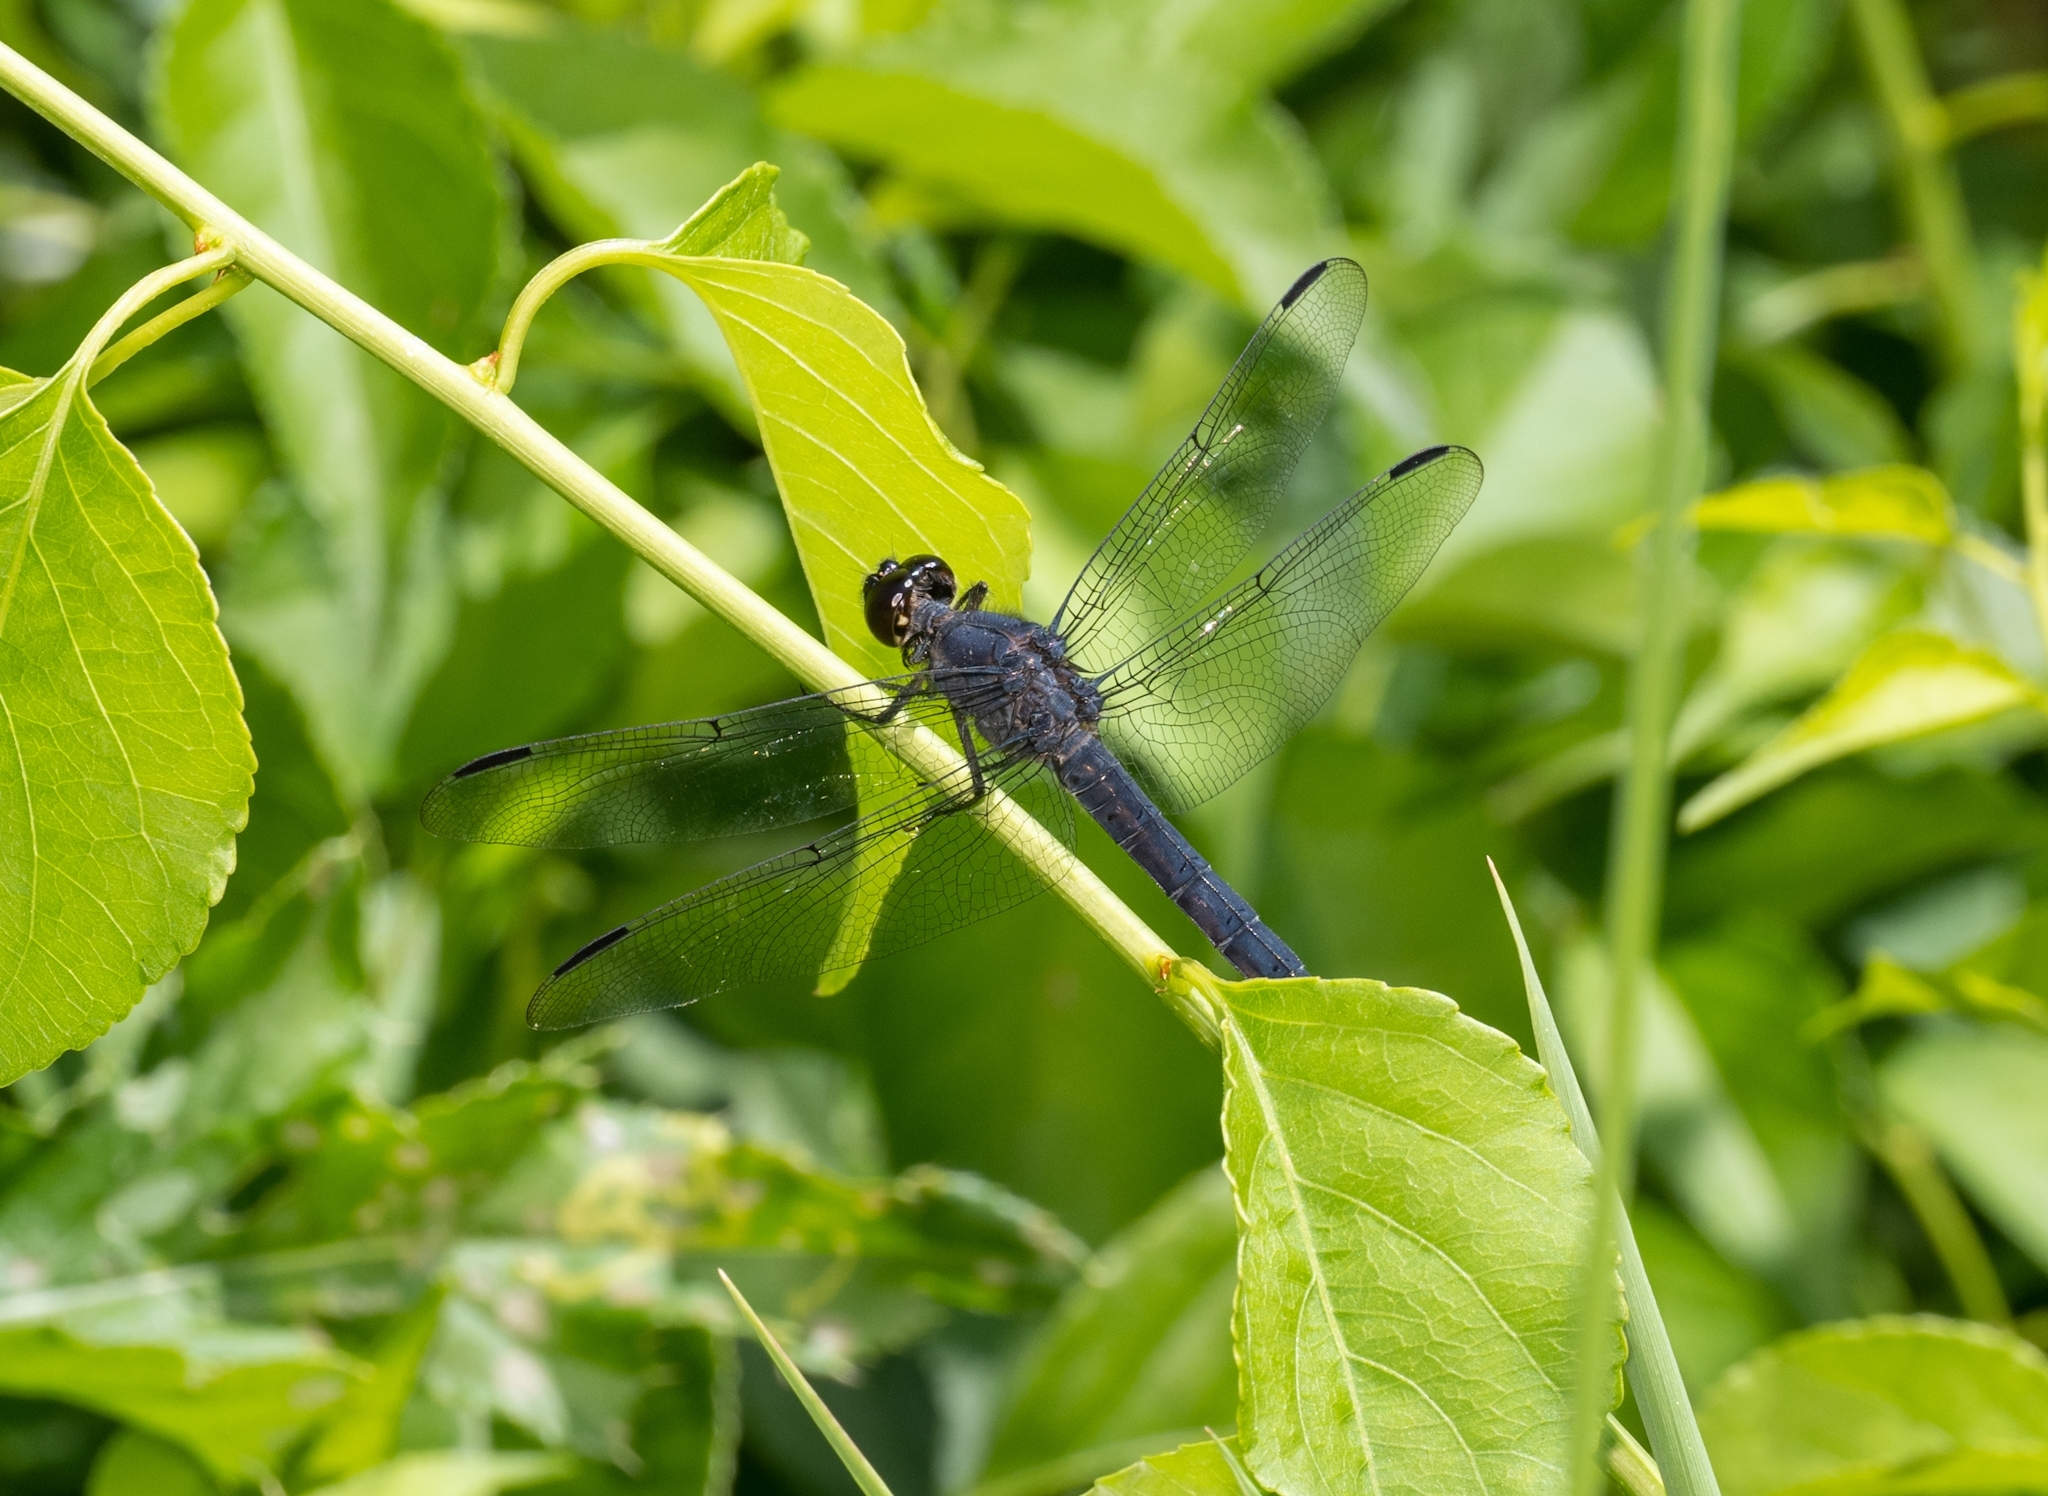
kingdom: Animalia
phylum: Arthropoda
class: Insecta
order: Odonata
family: Libellulidae
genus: Libellula
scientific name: Libellula incesta
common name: Slaty skimmer
